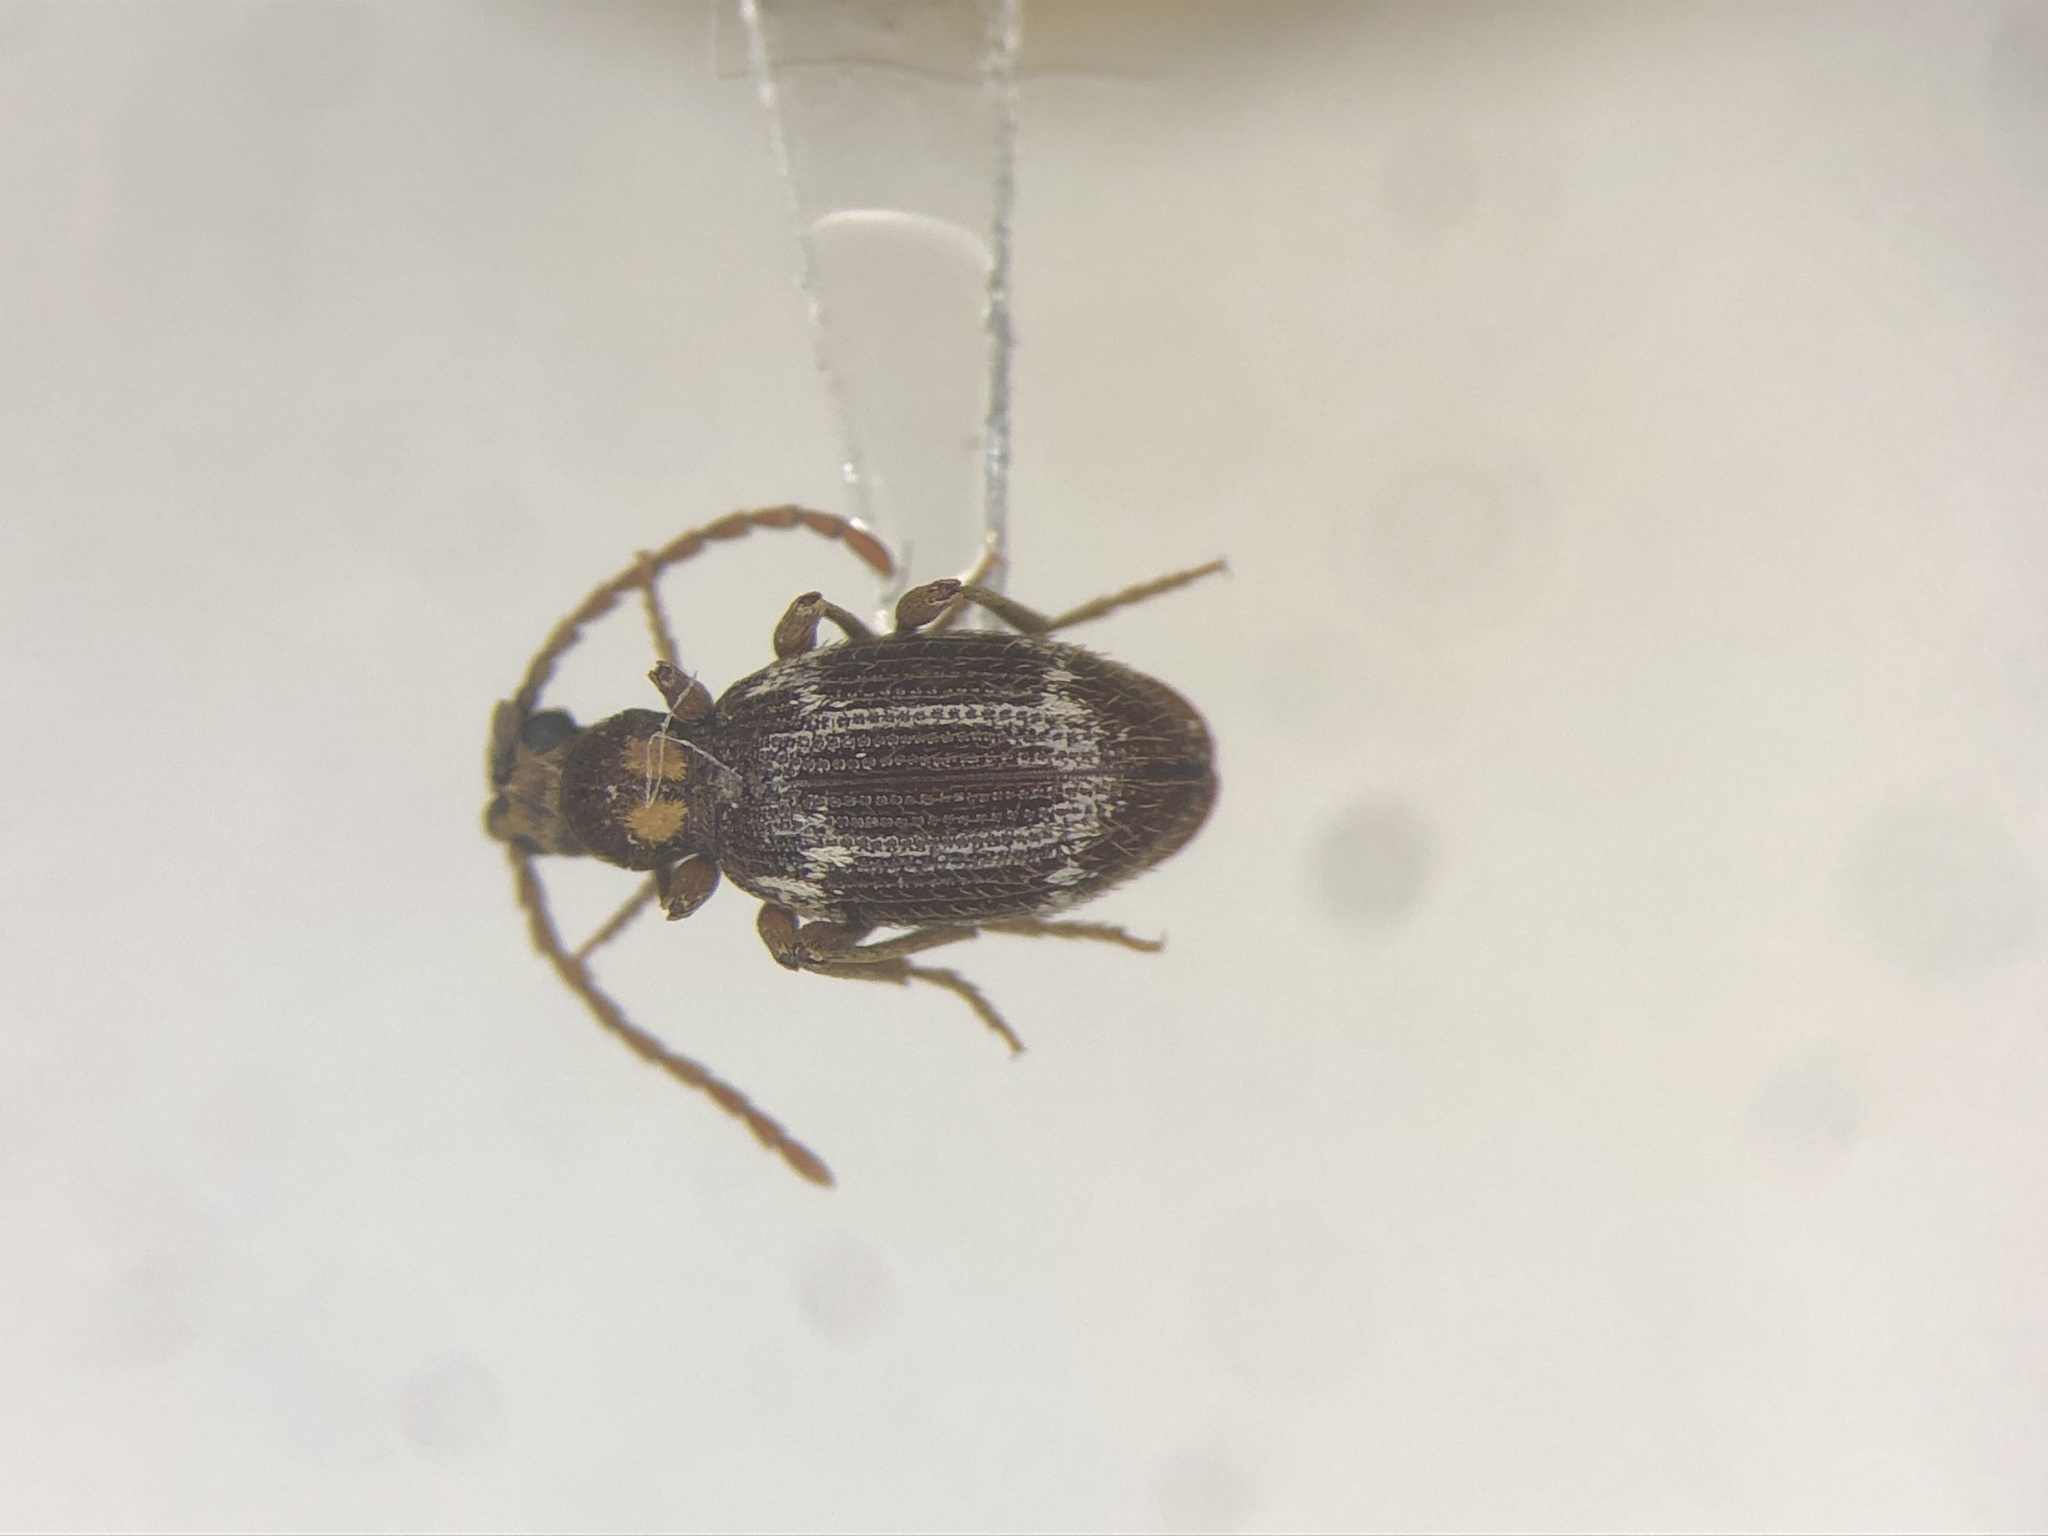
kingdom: Animalia
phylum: Arthropoda
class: Insecta
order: Coleoptera
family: Ptinidae
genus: Ptinus
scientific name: Ptinus fur
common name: White-marked spider beetle
